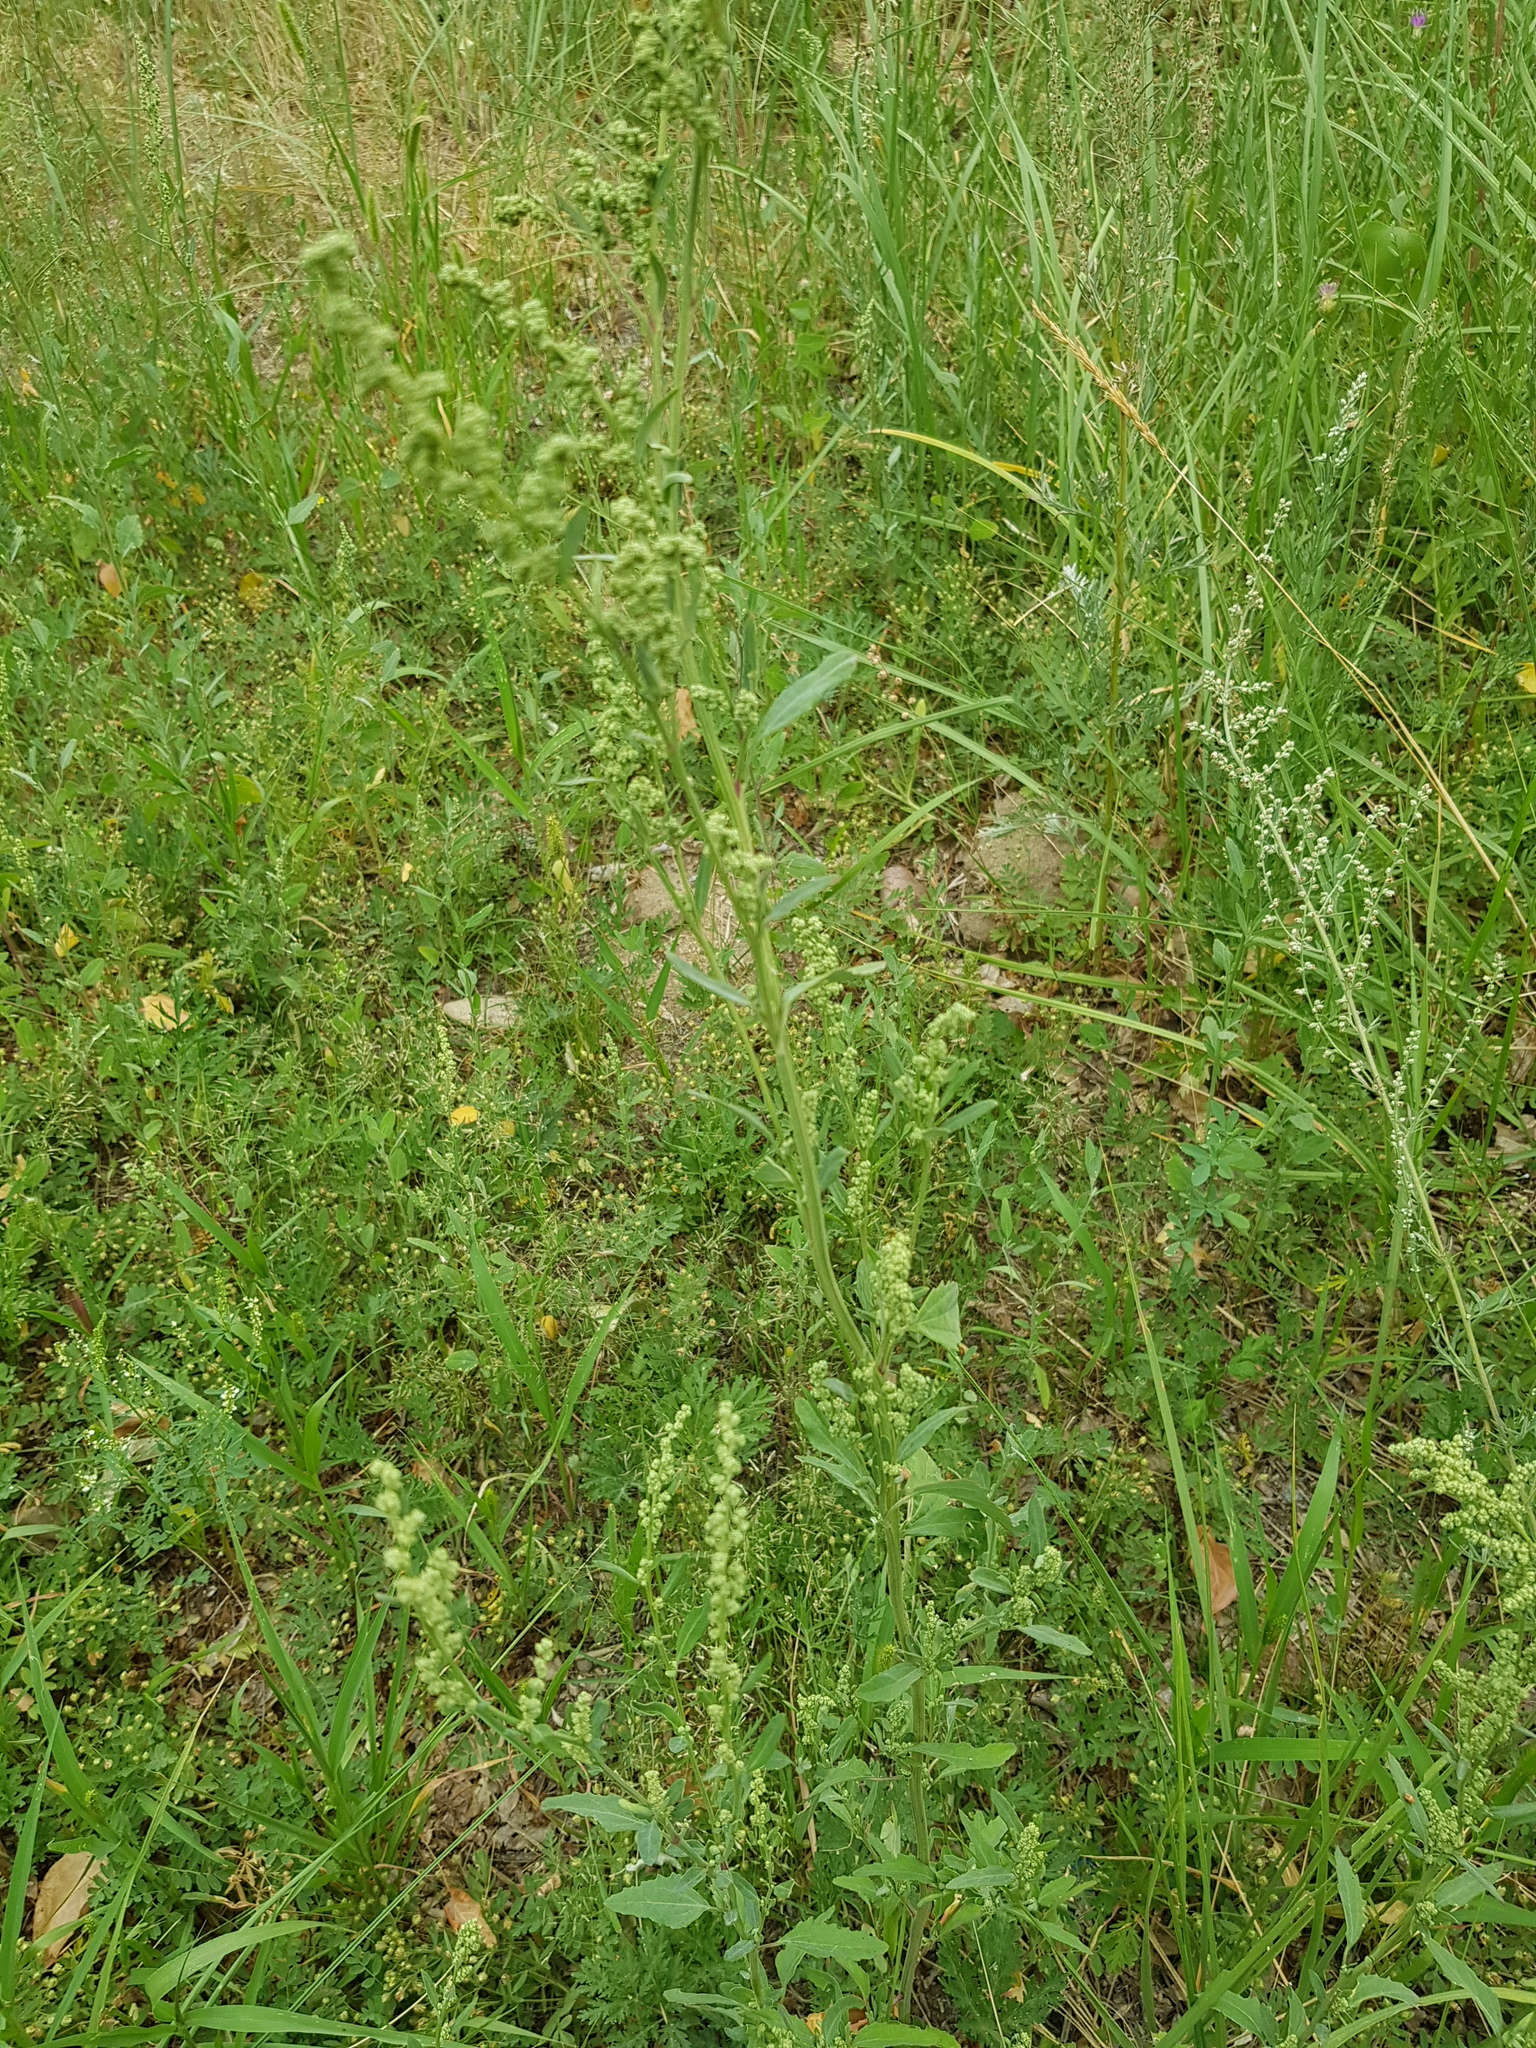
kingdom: Plantae
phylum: Tracheophyta
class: Magnoliopsida
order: Caryophyllales
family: Amaranthaceae
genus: Chenopodium
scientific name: Chenopodium album
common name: Fat-hen
